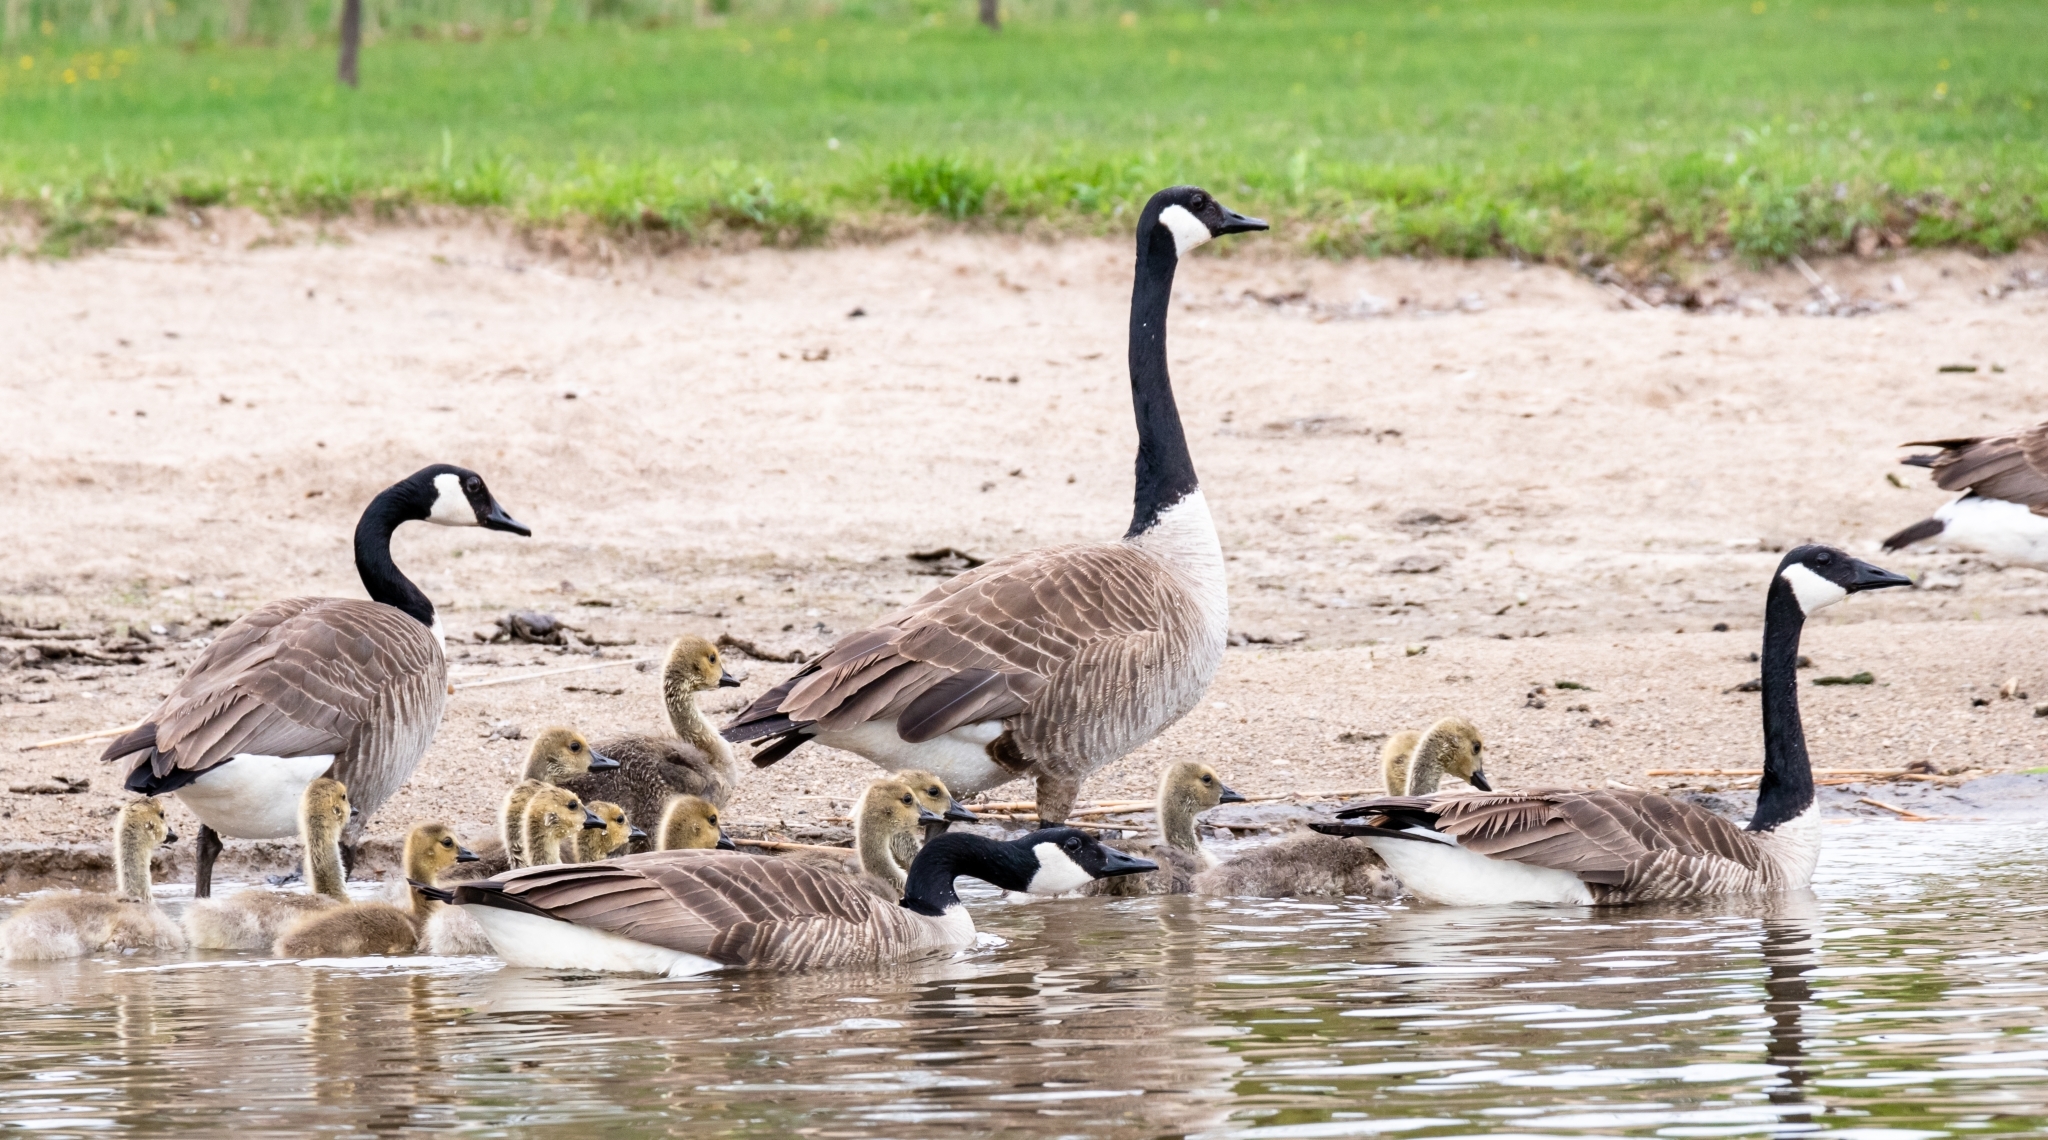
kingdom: Animalia
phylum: Chordata
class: Aves
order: Anseriformes
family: Anatidae
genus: Branta
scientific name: Branta canadensis
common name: Canada goose
